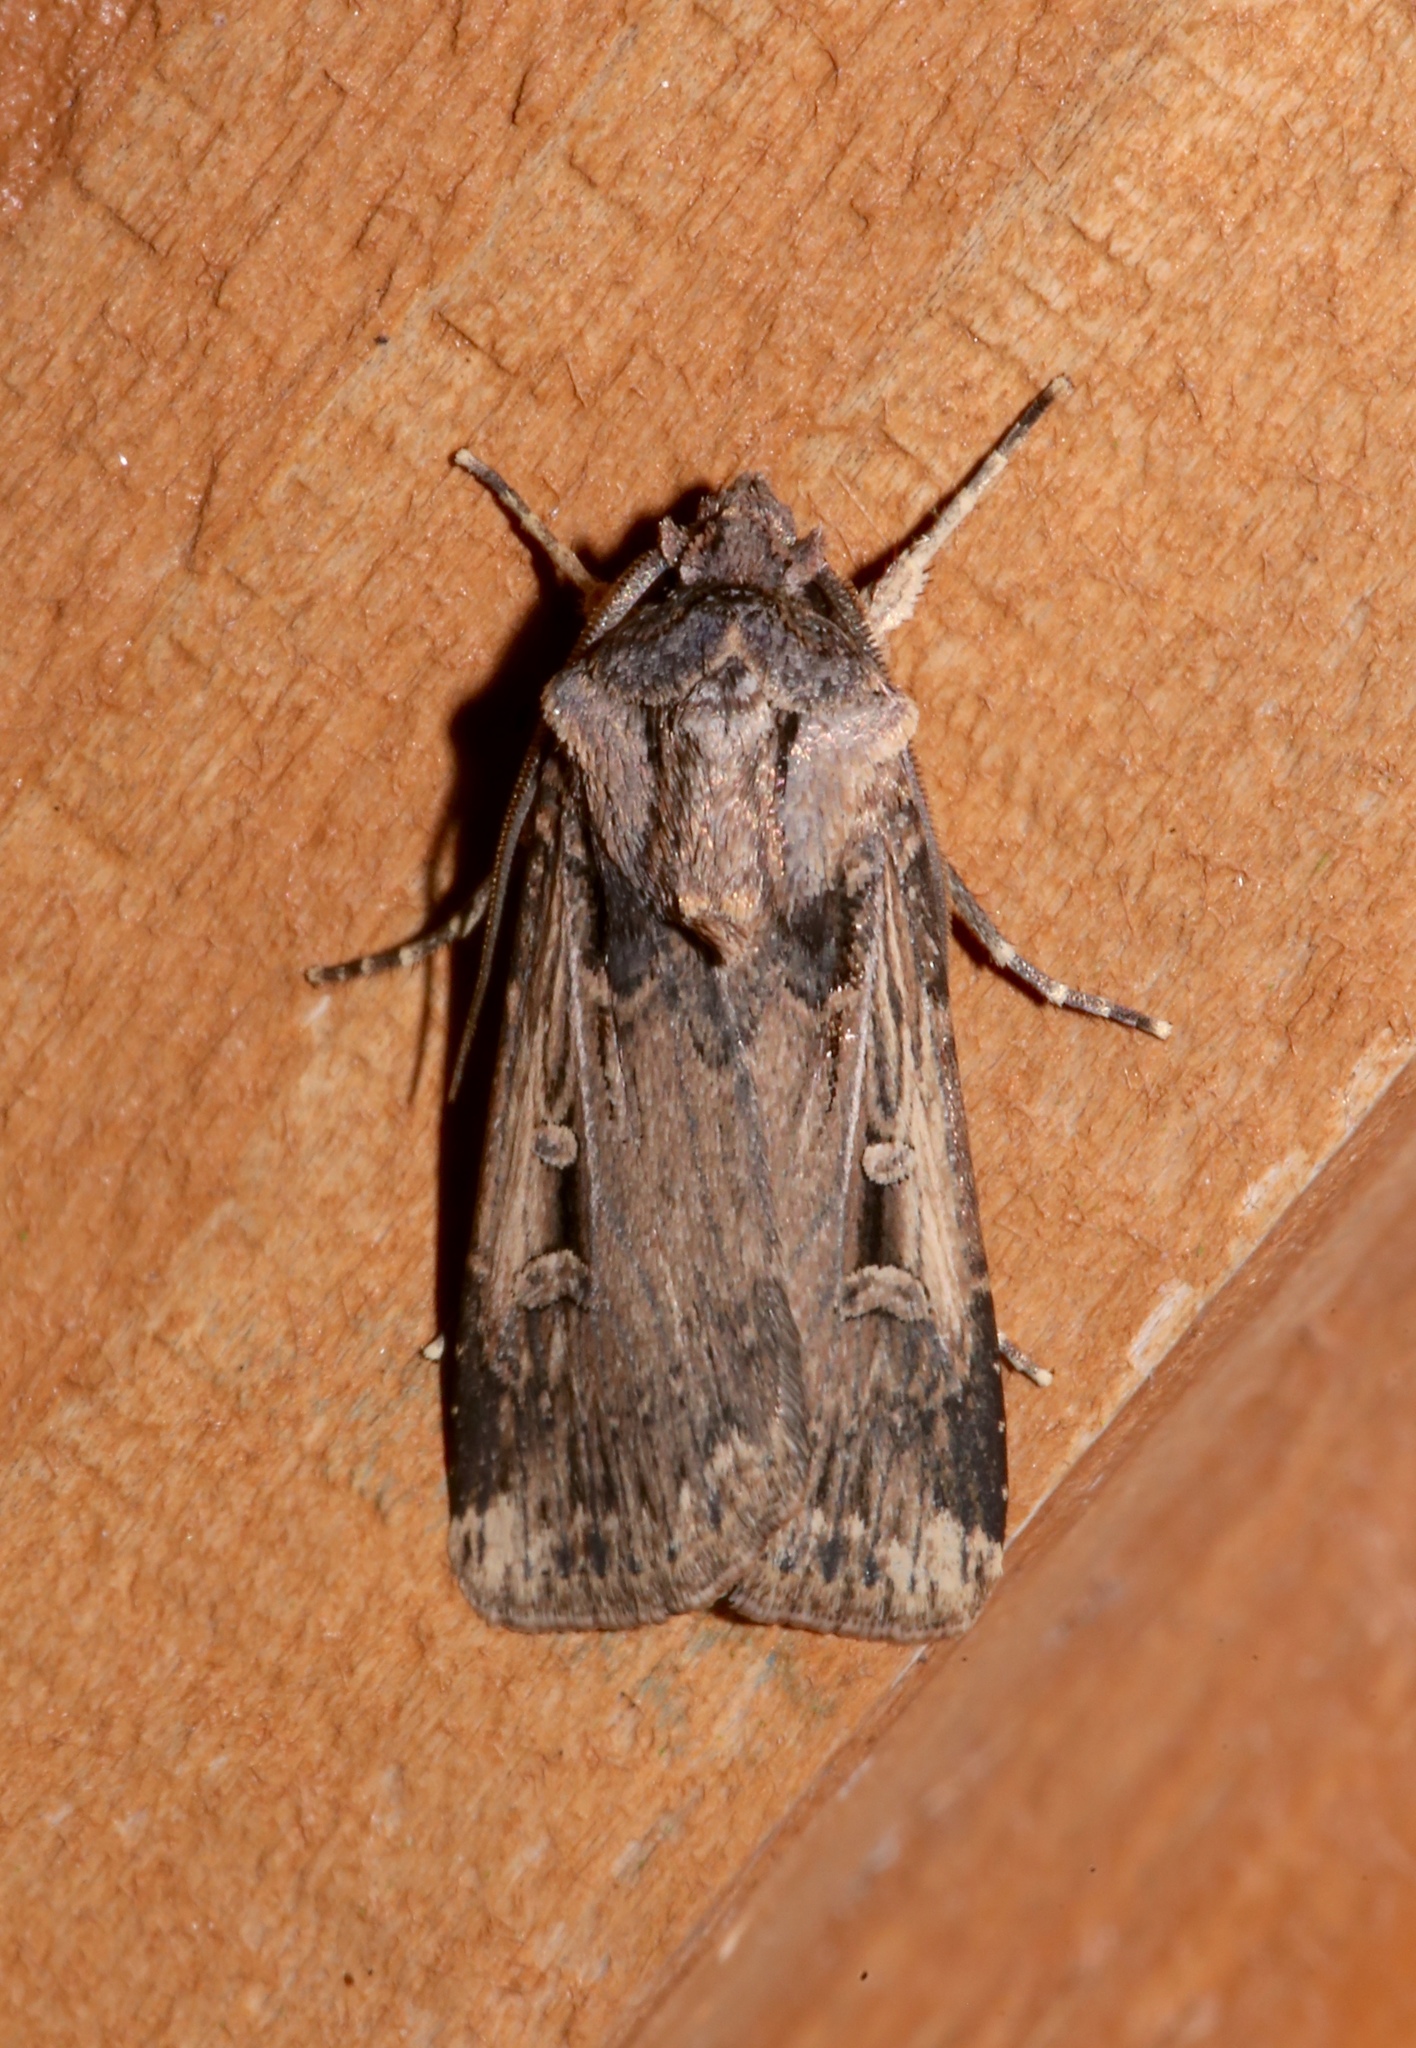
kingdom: Animalia
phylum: Arthropoda
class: Insecta
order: Lepidoptera
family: Noctuidae
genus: Feltia
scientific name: Feltia subterranea
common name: Granulate cutworm
